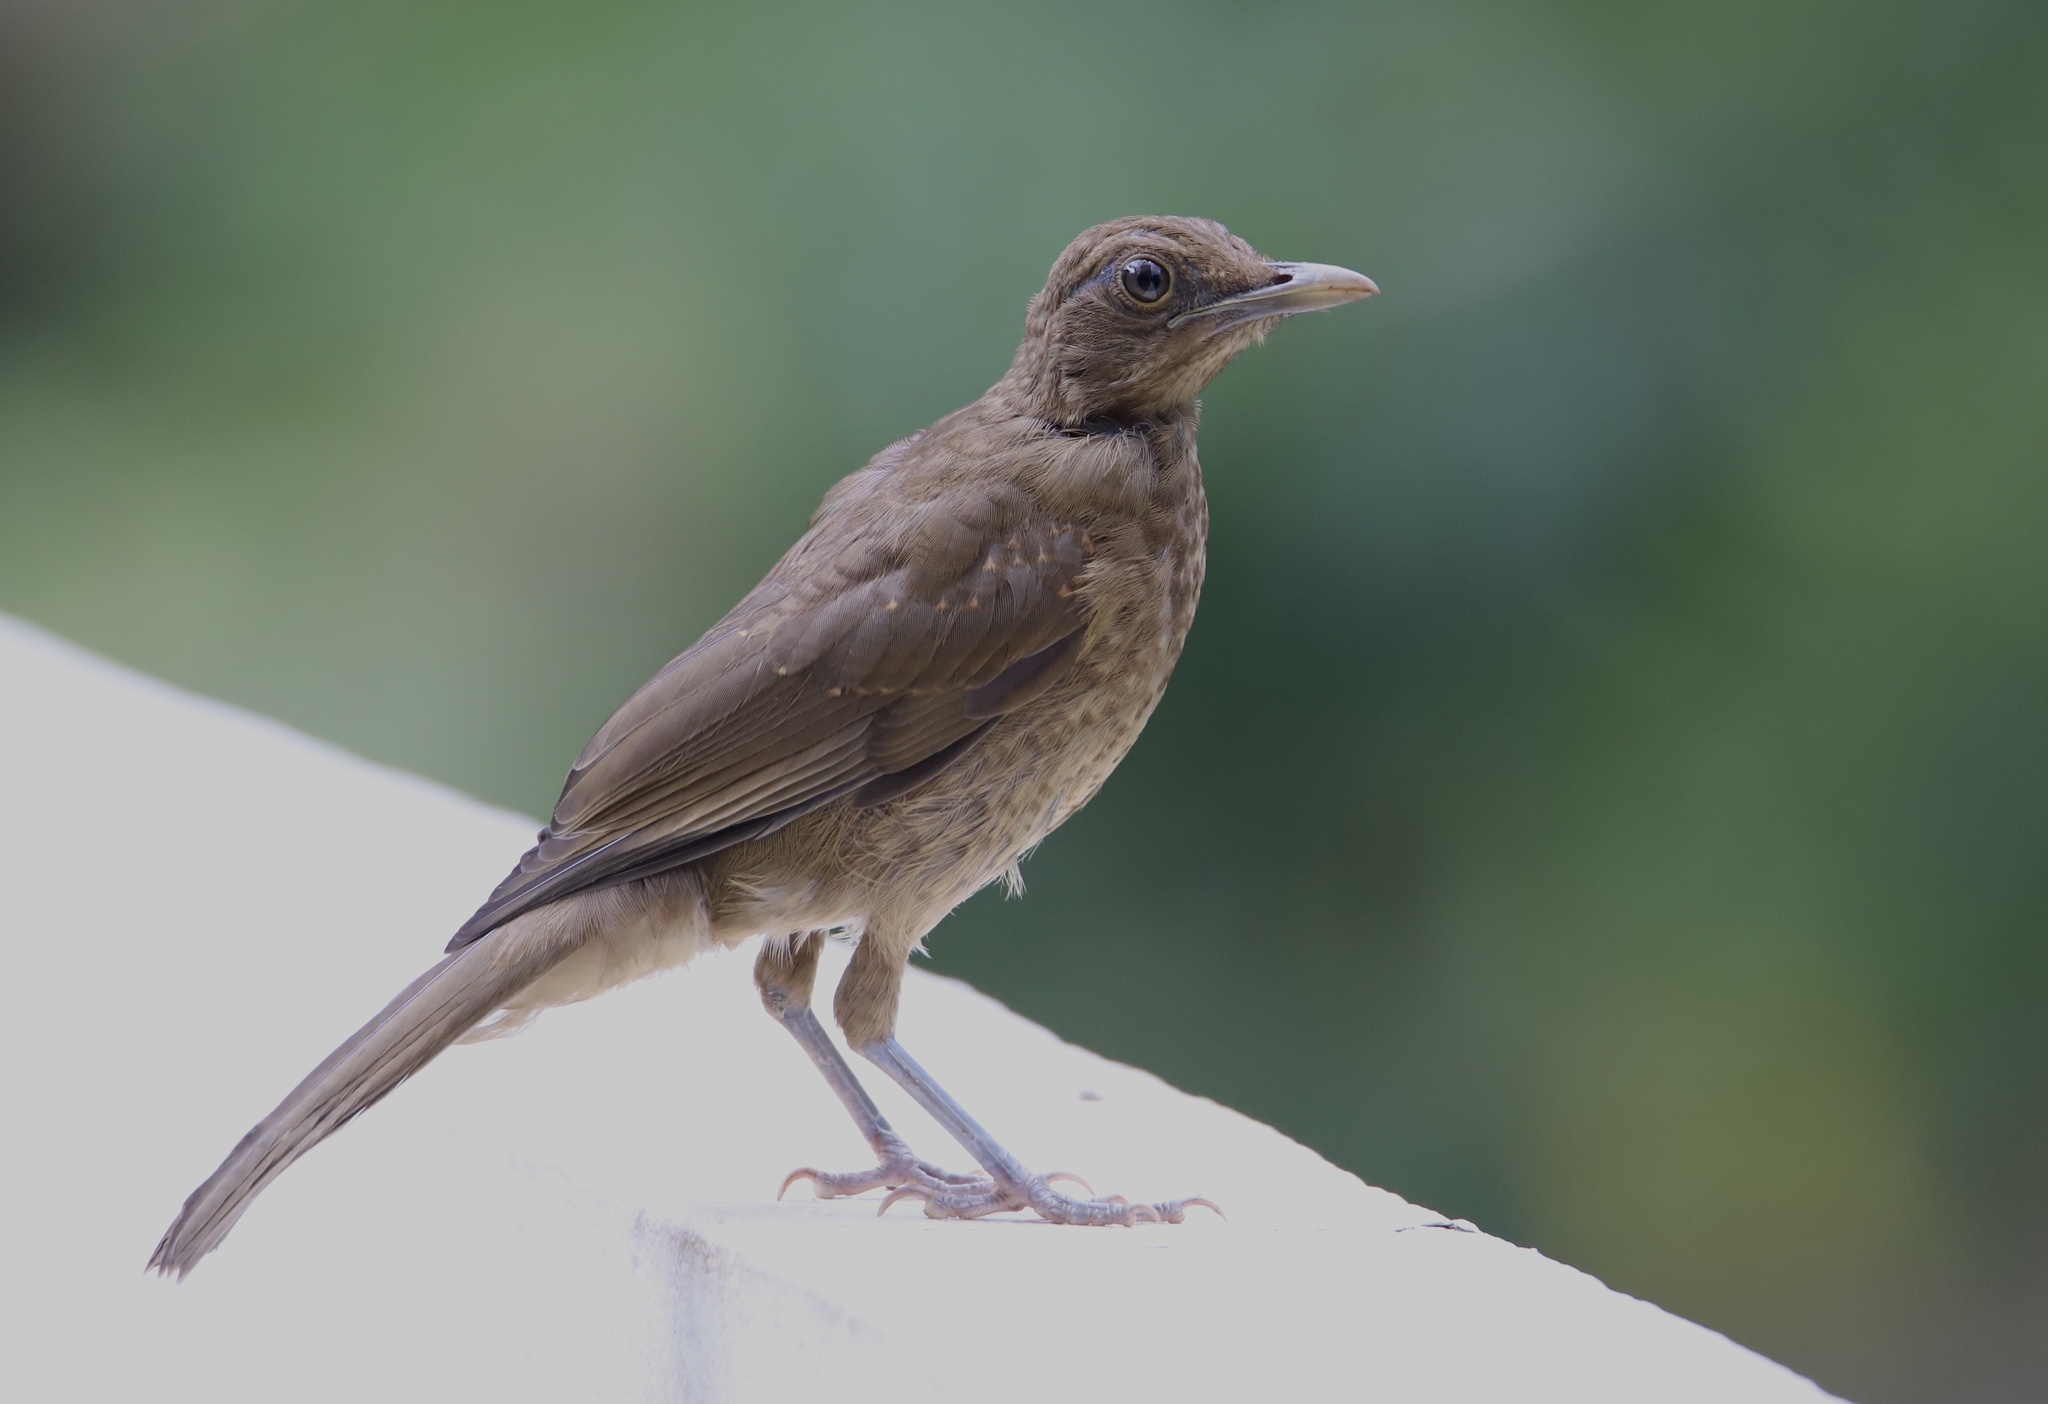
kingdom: Animalia
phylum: Chordata
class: Aves
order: Passeriformes
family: Turdidae
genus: Turdus
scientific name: Turdus grayi
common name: Clay-colored thrush
